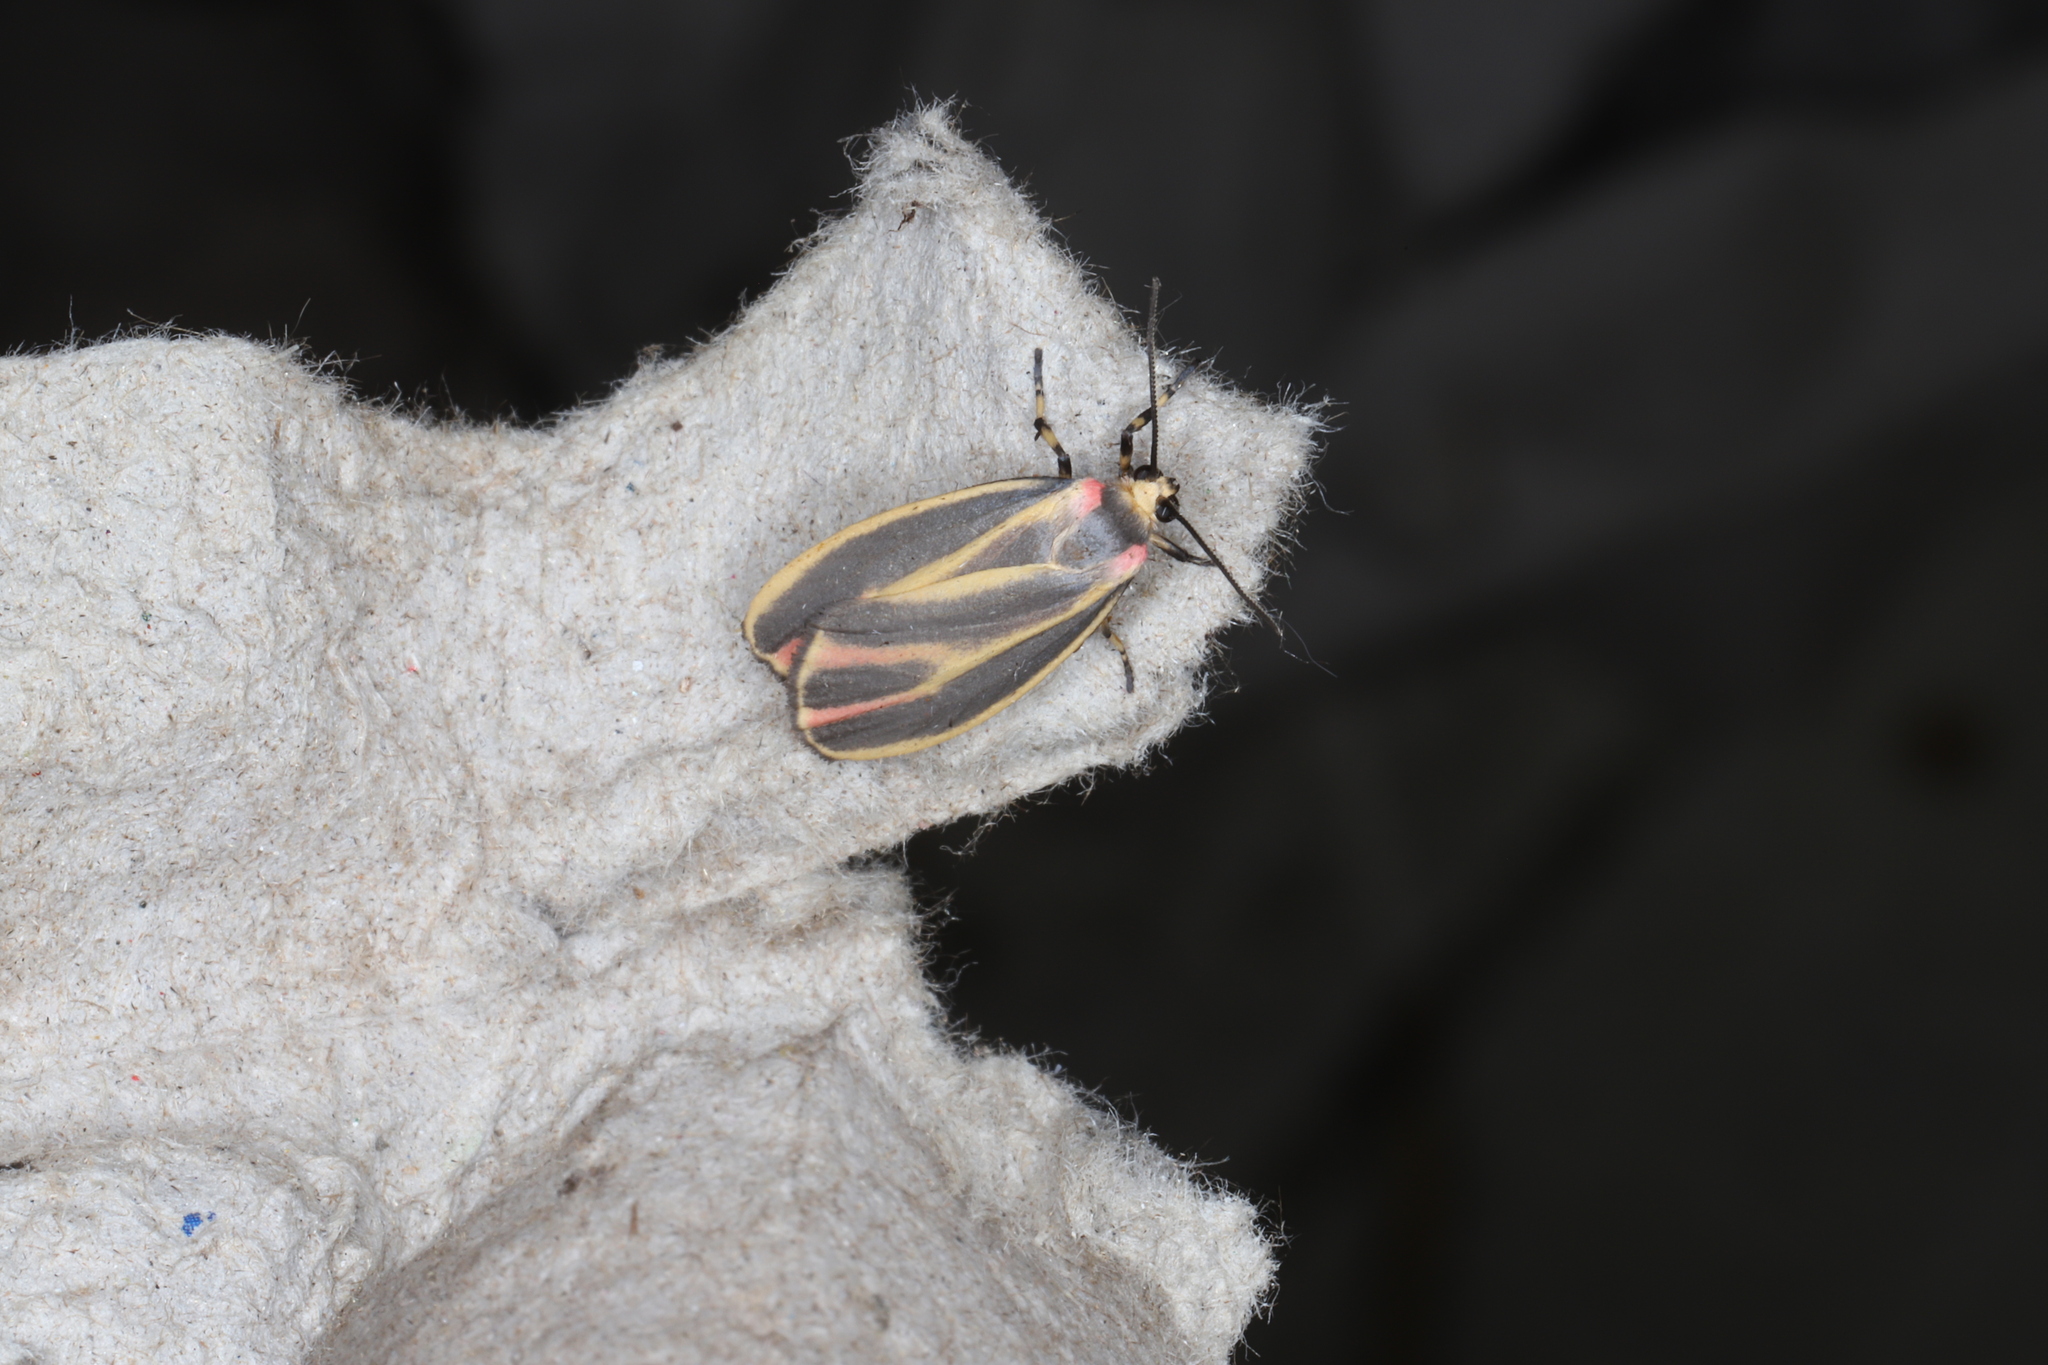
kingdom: Animalia
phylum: Arthropoda
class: Insecta
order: Lepidoptera
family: Erebidae
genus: Hypoprepia
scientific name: Hypoprepia fucosa
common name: Painted lichen moth
